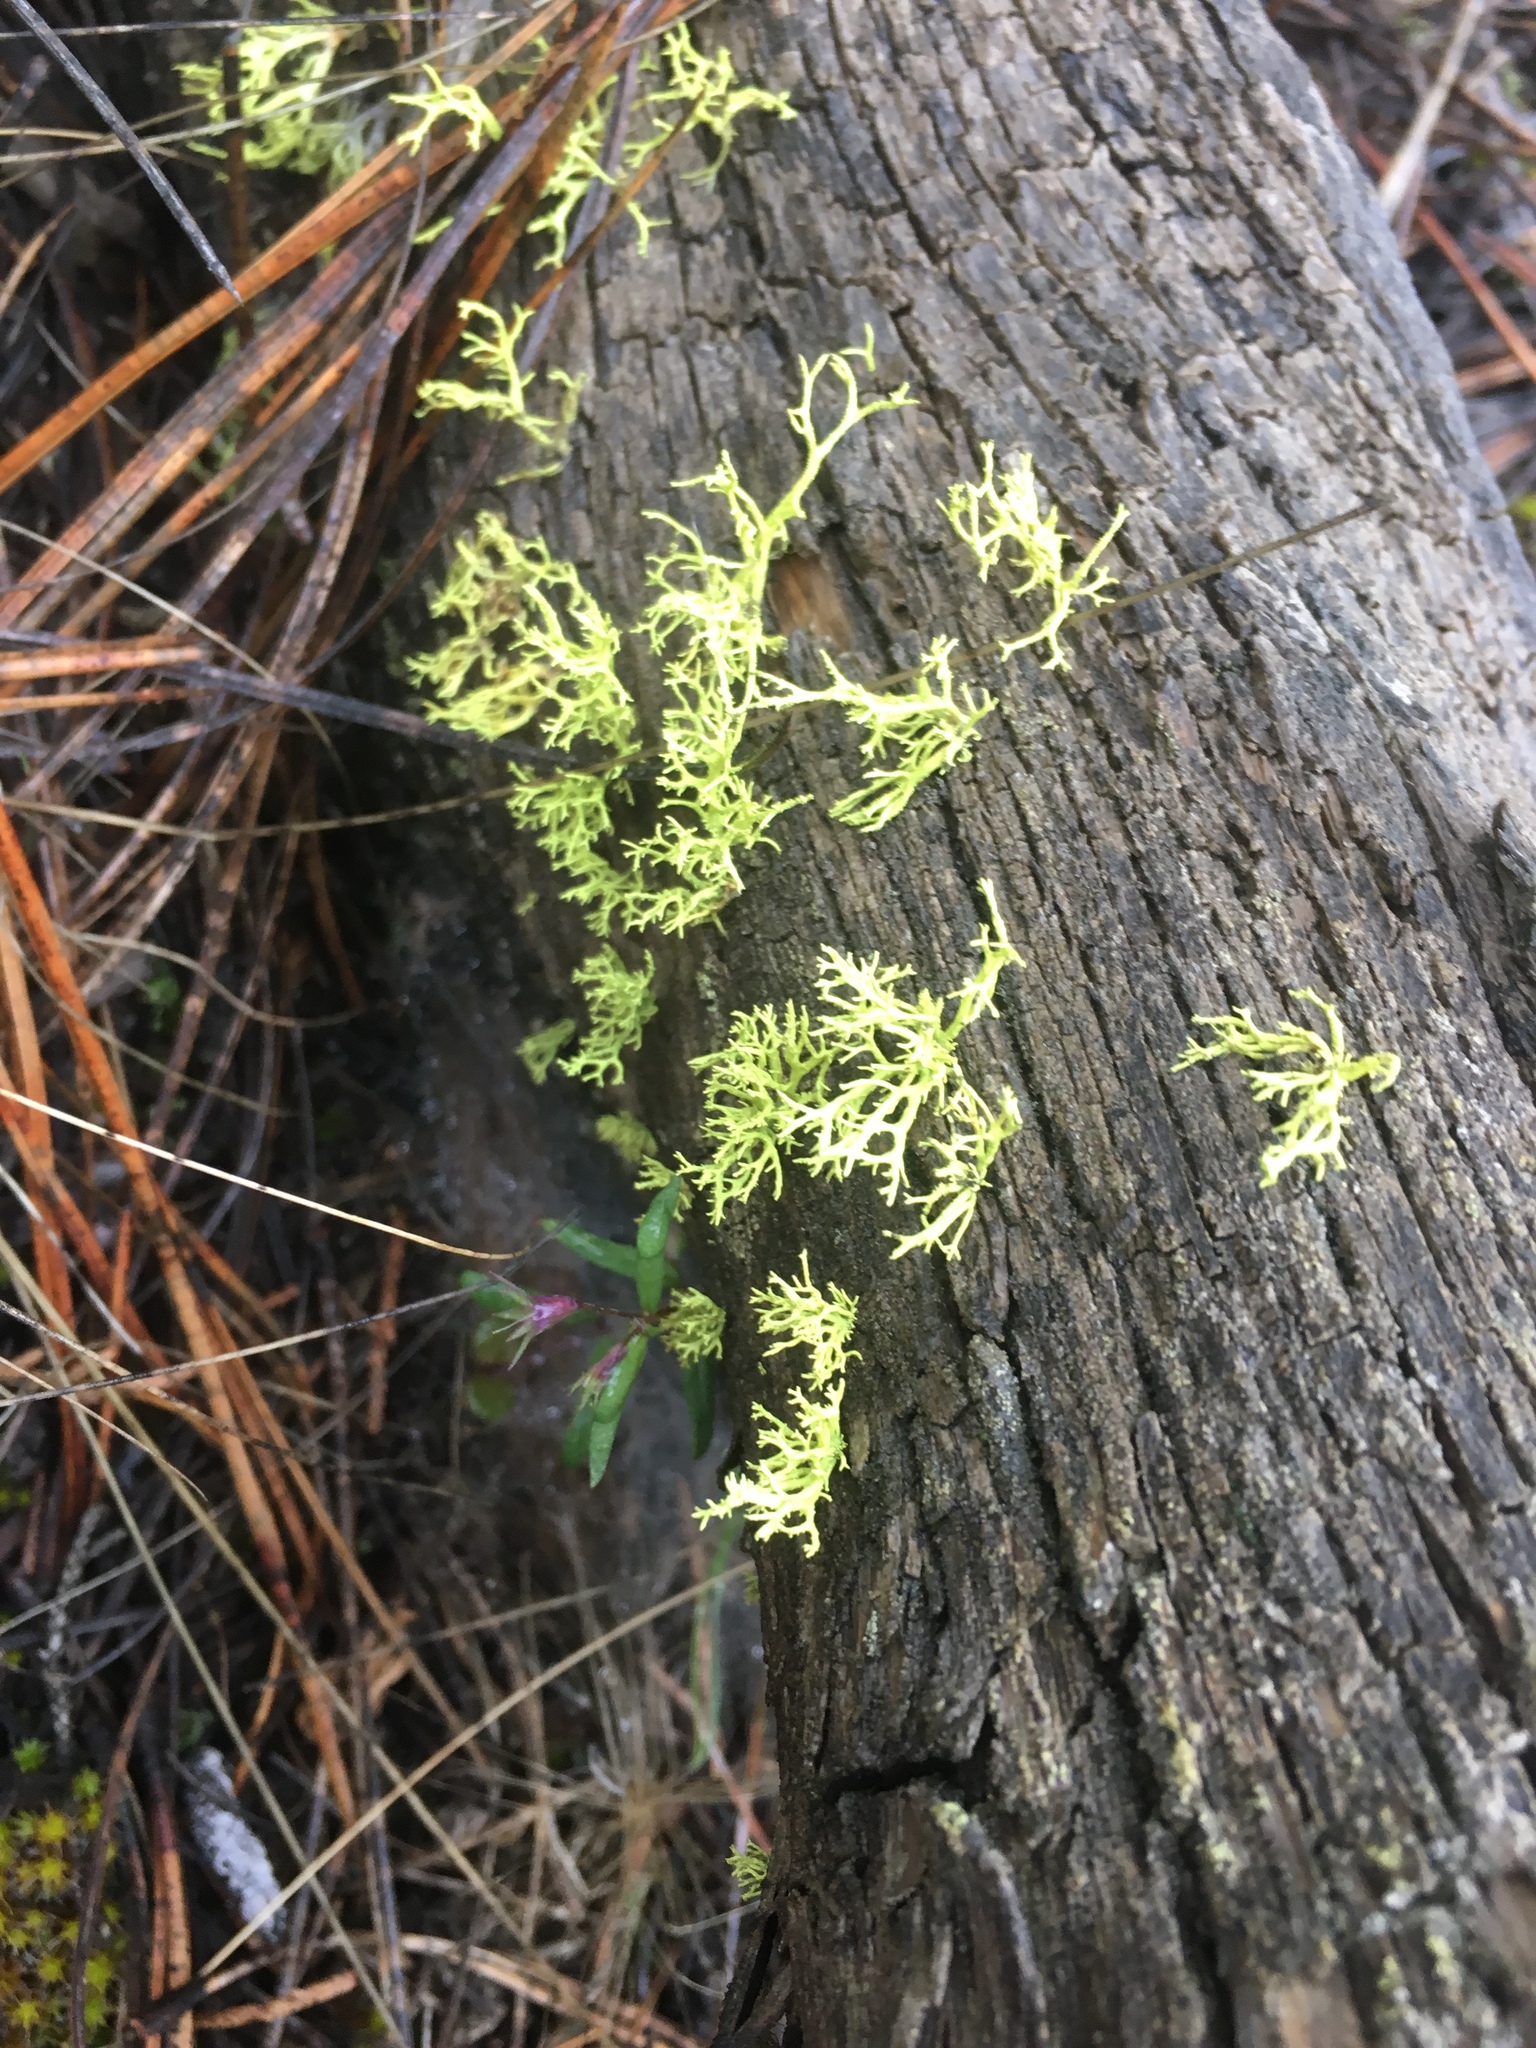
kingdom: Fungi
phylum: Ascomycota
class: Lecanoromycetes
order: Lecanorales
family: Parmeliaceae
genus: Letharia
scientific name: Letharia vulpina
